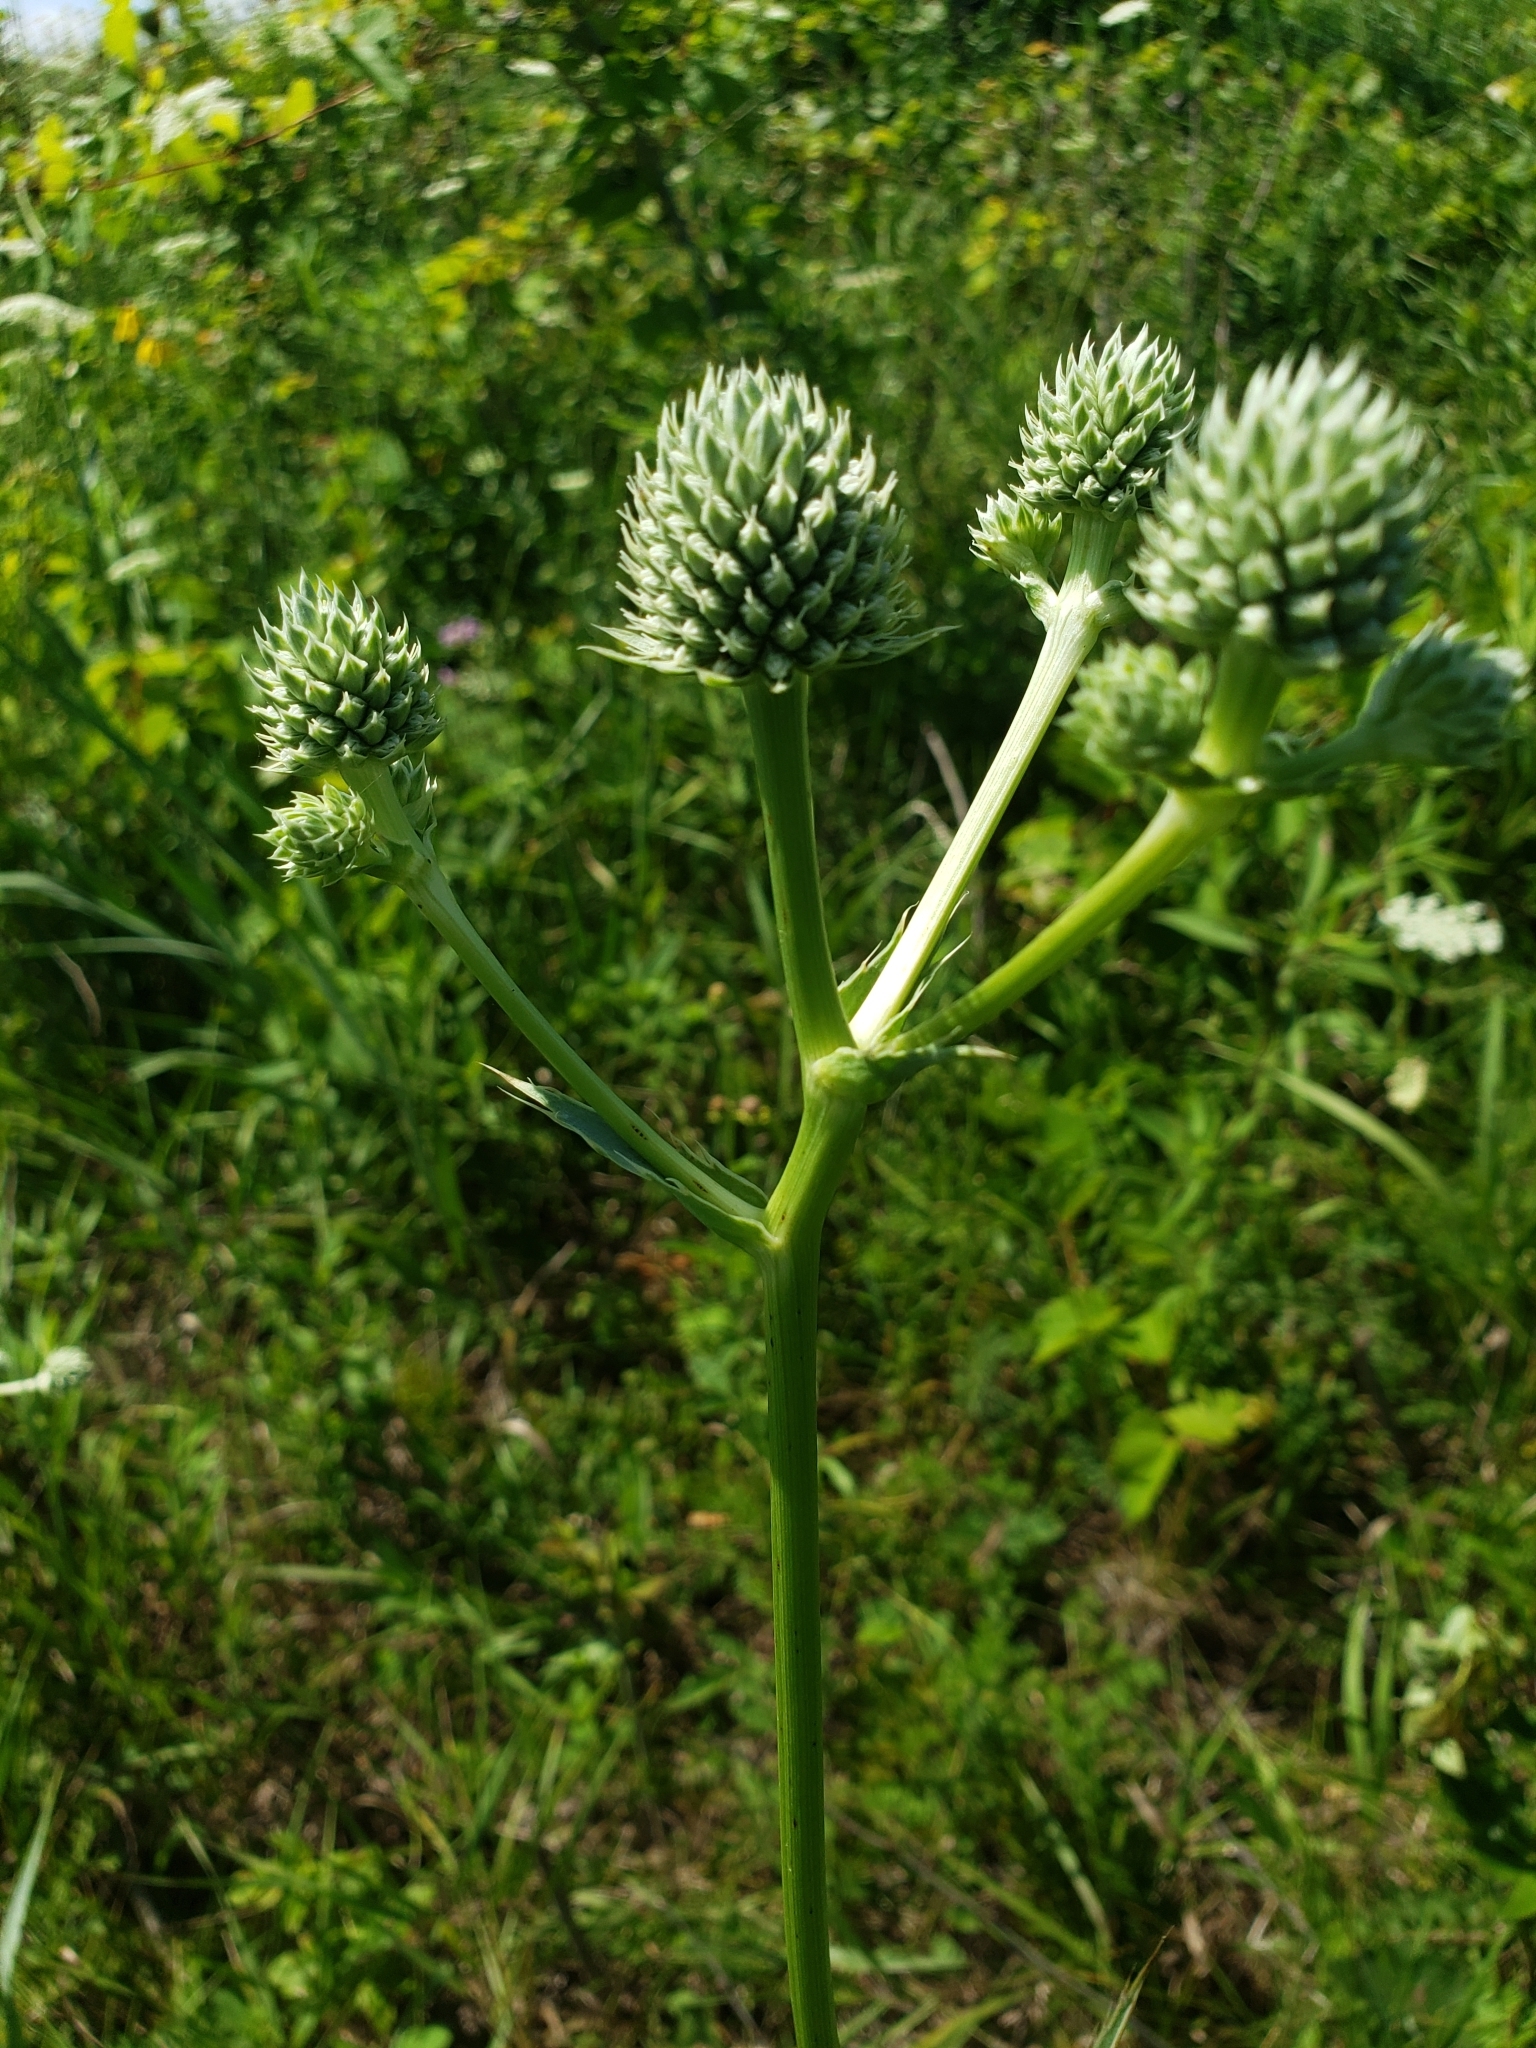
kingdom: Plantae
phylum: Tracheophyta
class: Magnoliopsida
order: Apiales
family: Apiaceae
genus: Eryngium
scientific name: Eryngium yuccifolium
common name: Button eryngo
